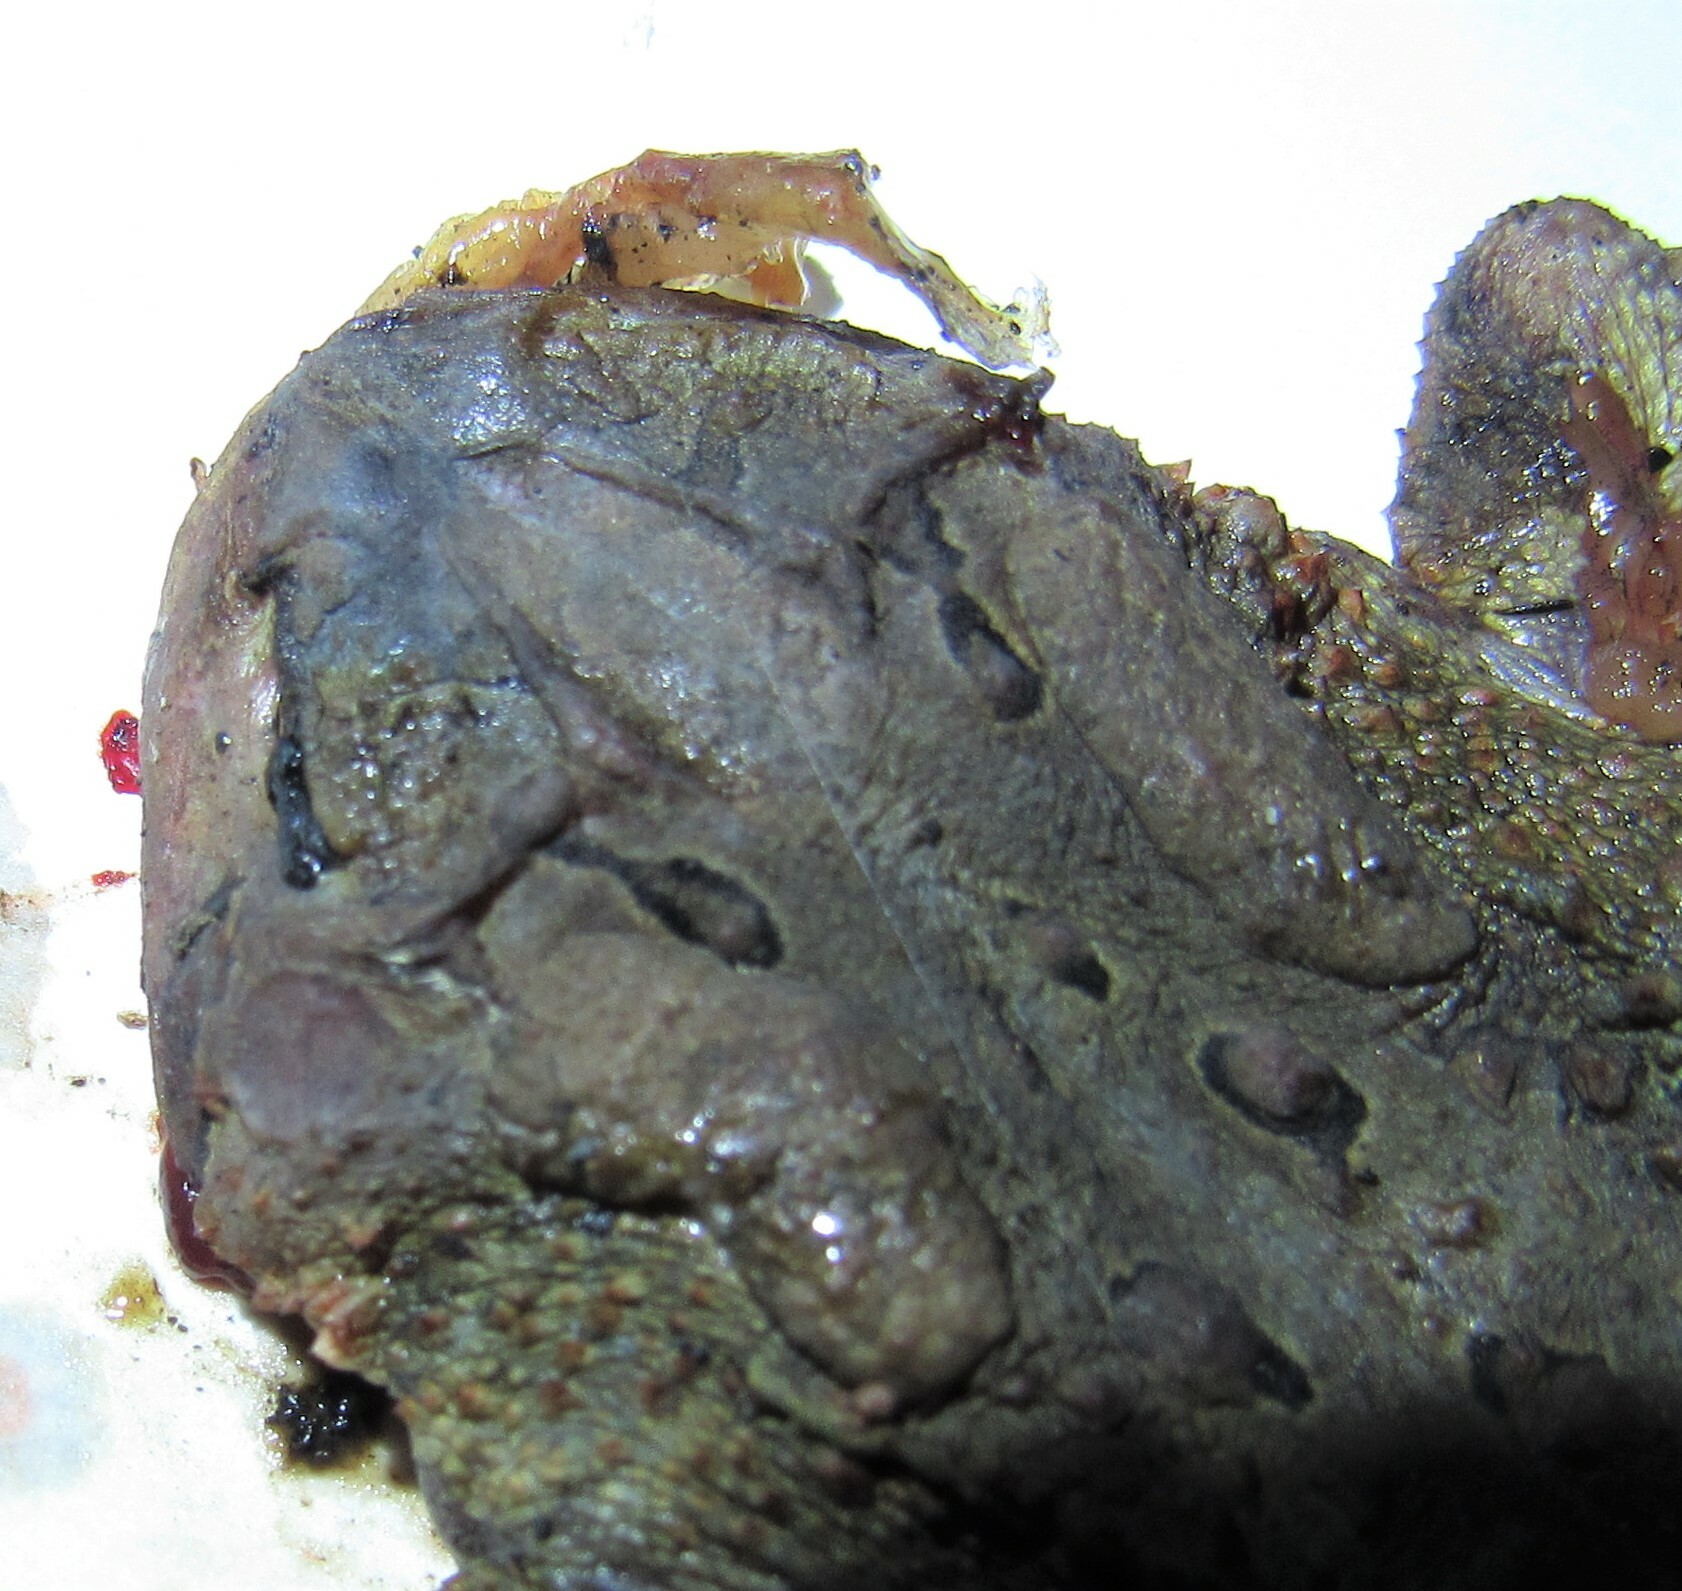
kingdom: Animalia
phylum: Chordata
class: Amphibia
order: Anura
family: Bufonidae
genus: Anaxyrus
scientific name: Anaxyrus americanus
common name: American toad
